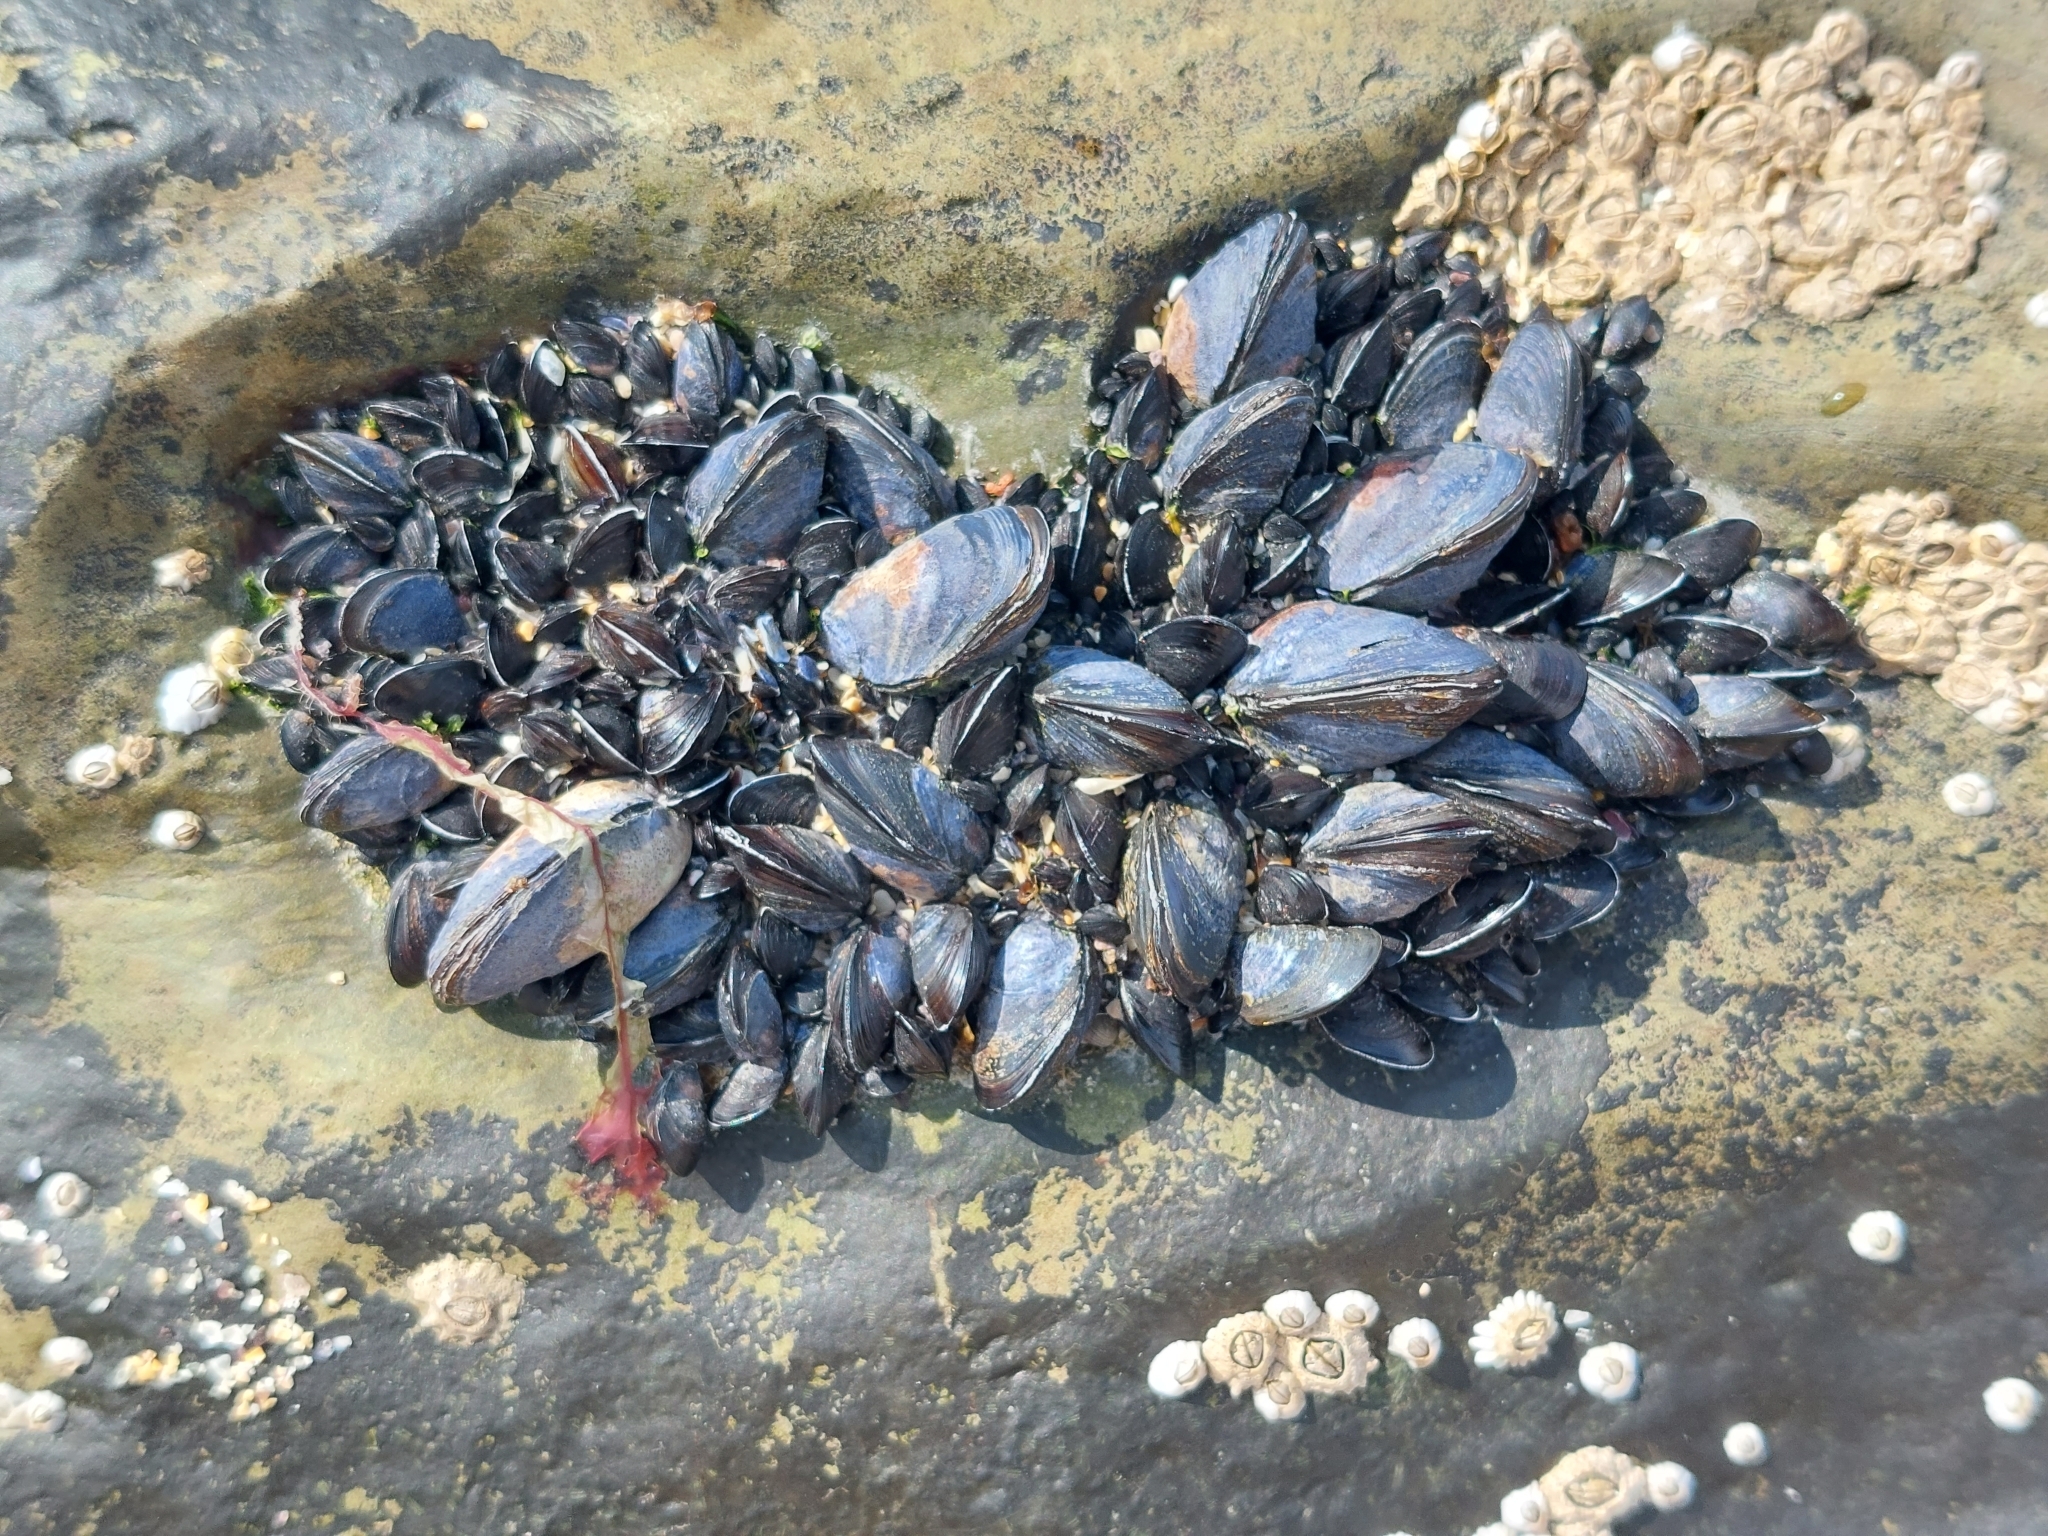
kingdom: Animalia
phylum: Mollusca
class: Bivalvia
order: Mytilida
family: Mytilidae
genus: Mytilus
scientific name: Mytilus edulis
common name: Blue mussel
